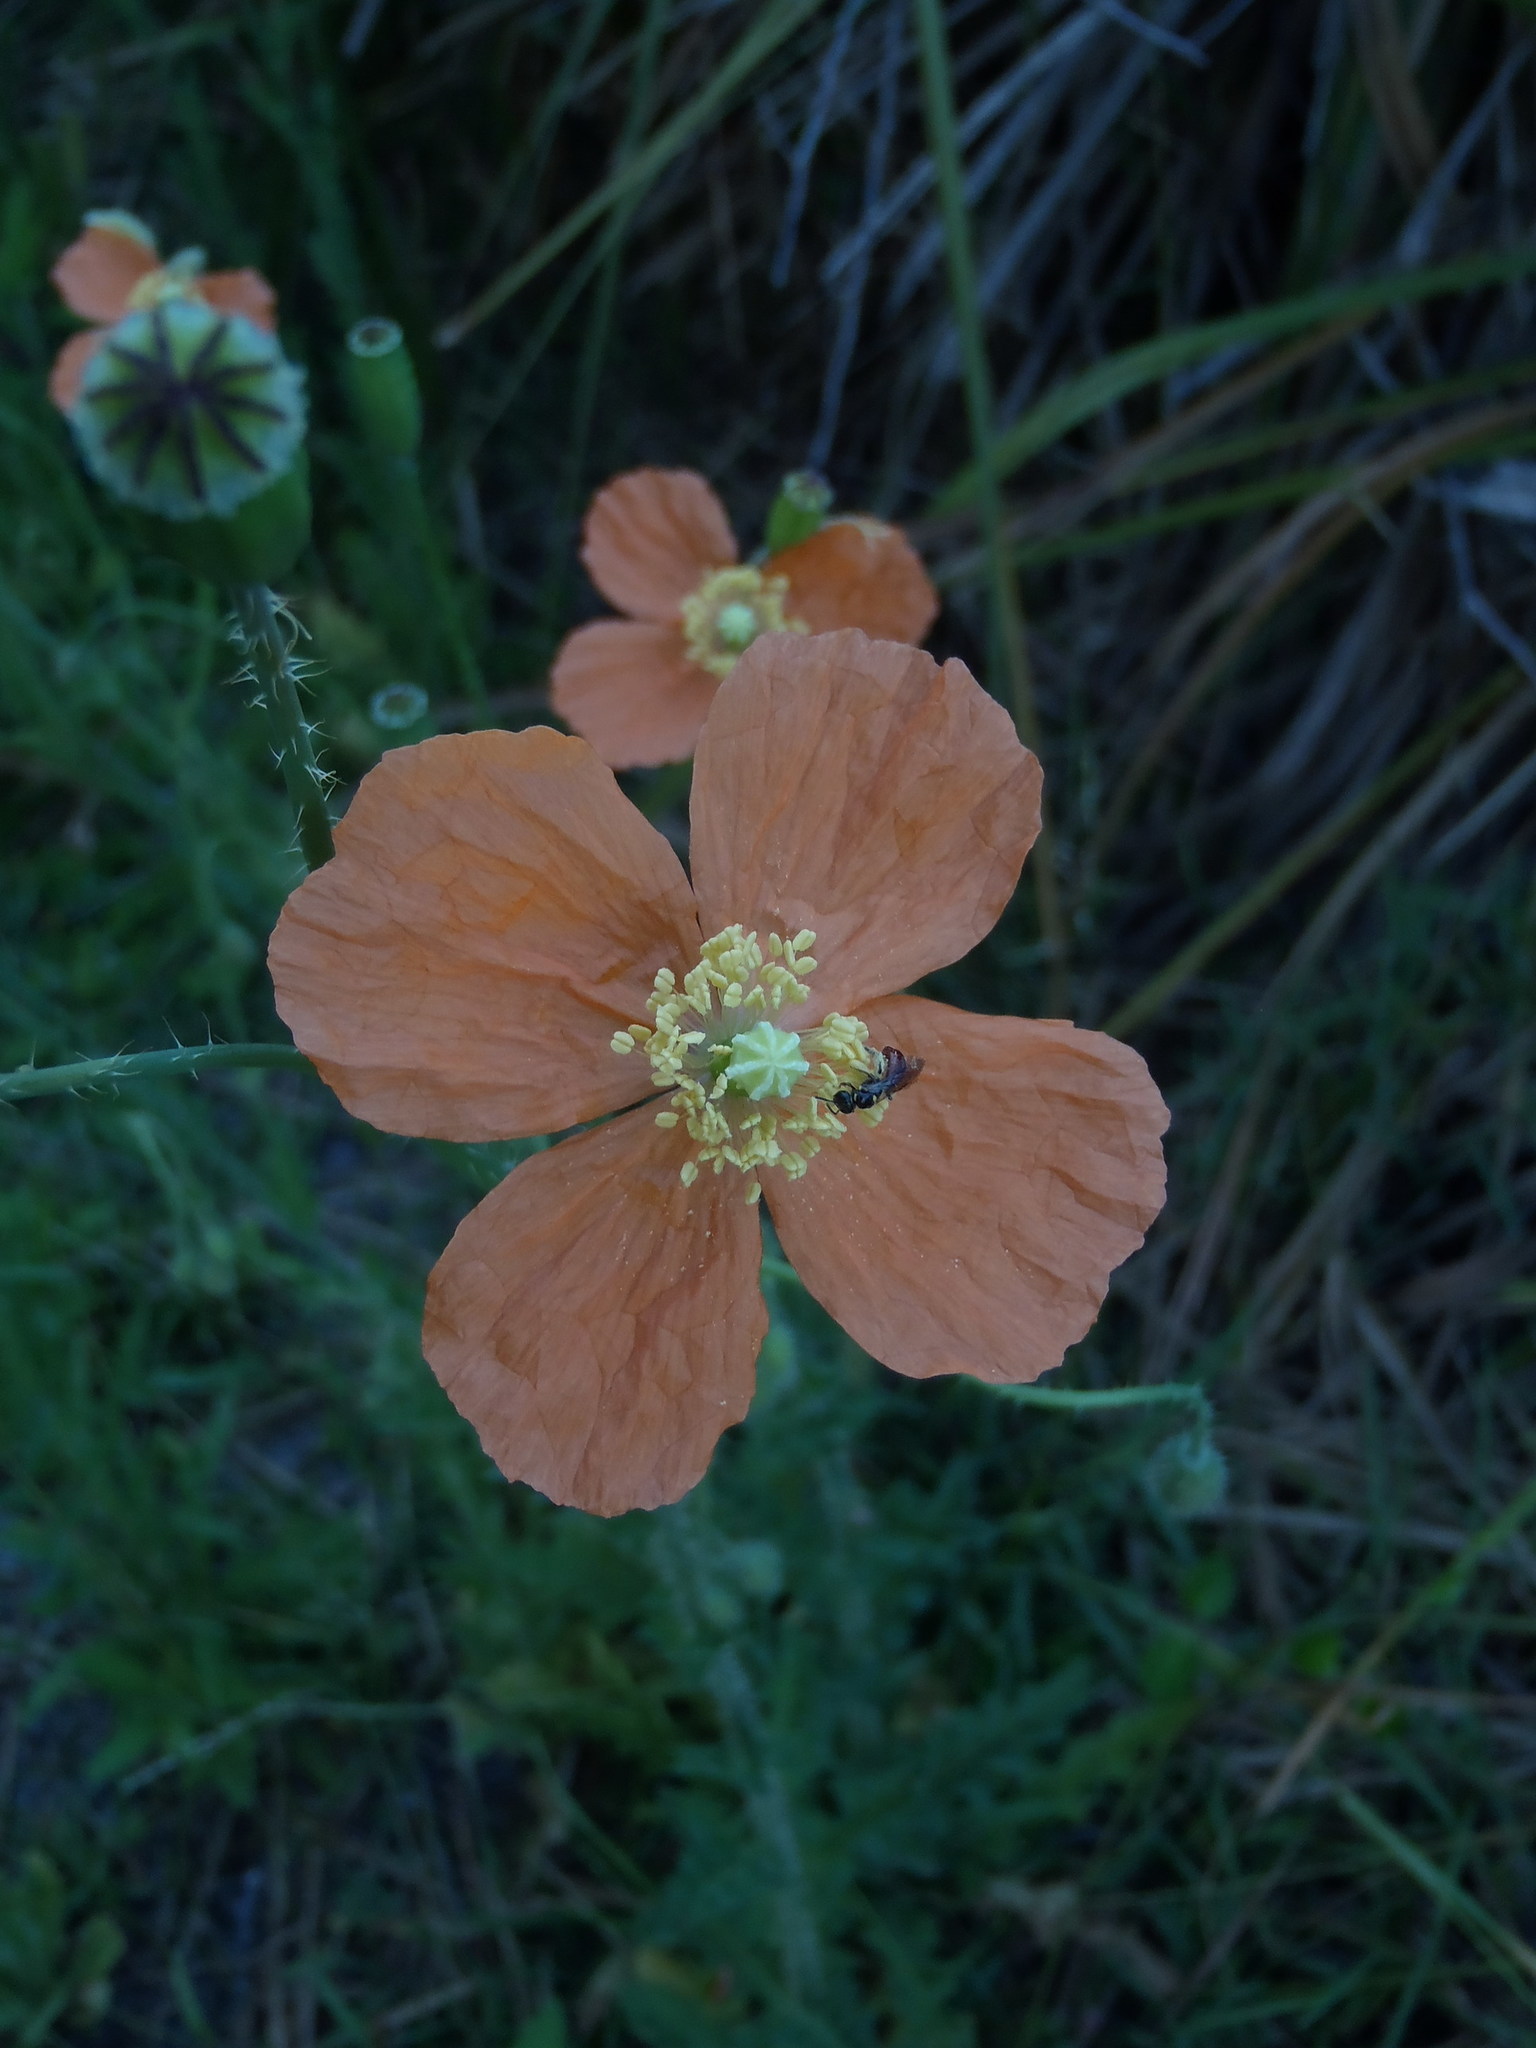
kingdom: Plantae
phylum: Tracheophyta
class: Magnoliopsida
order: Ranunculales
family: Papaveraceae
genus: Papaver
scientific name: Papaver aculeatum
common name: Bristle poppy
